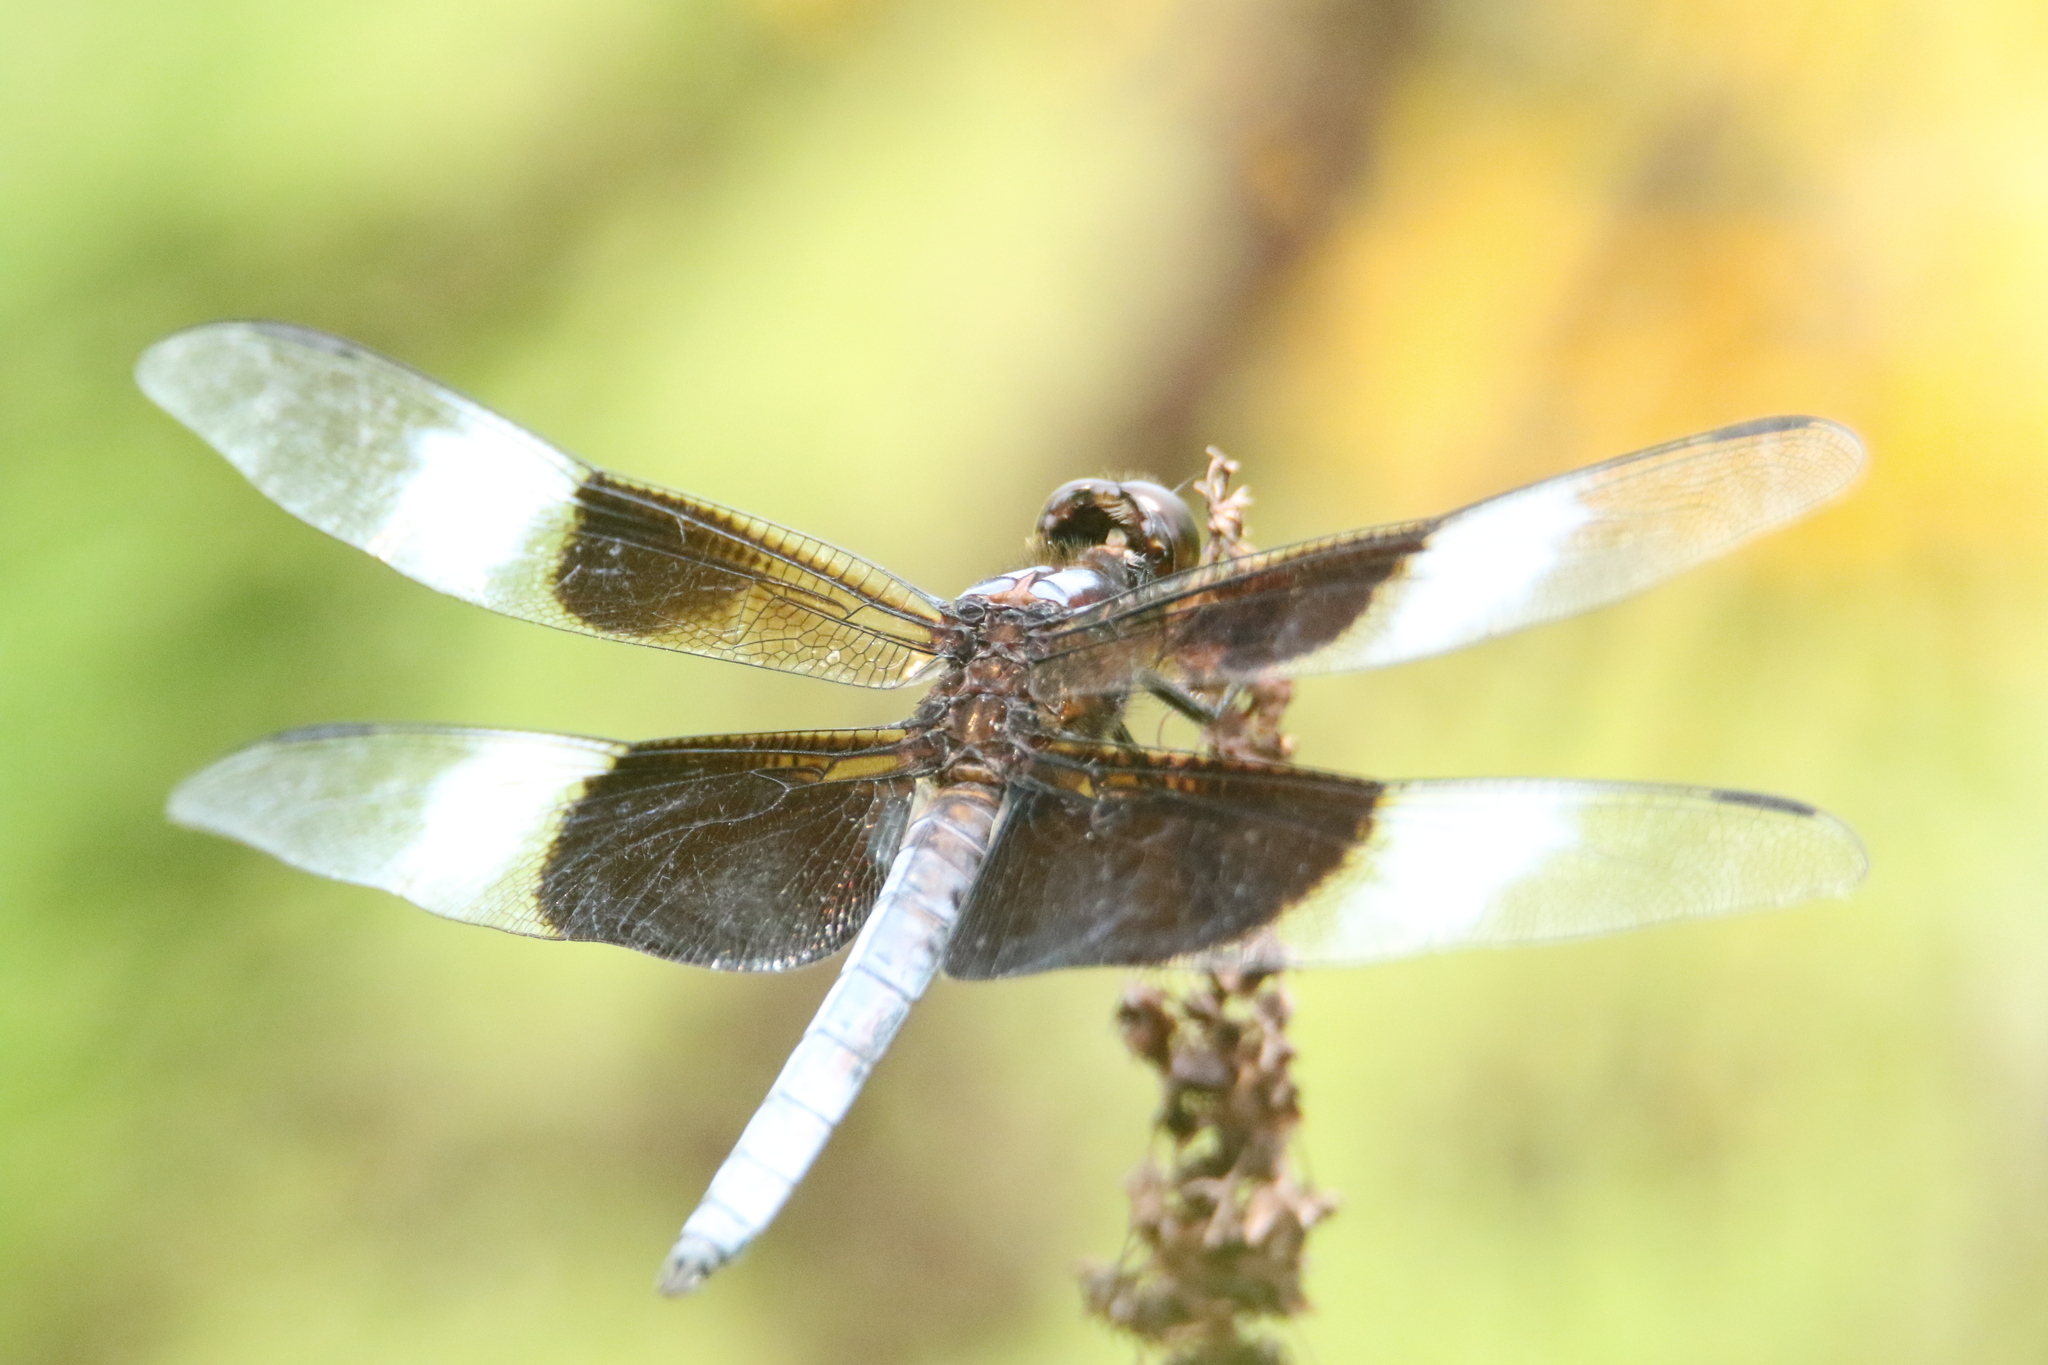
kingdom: Animalia
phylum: Arthropoda
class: Insecta
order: Odonata
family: Libellulidae
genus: Libellula
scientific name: Libellula luctuosa
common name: Widow skimmer
